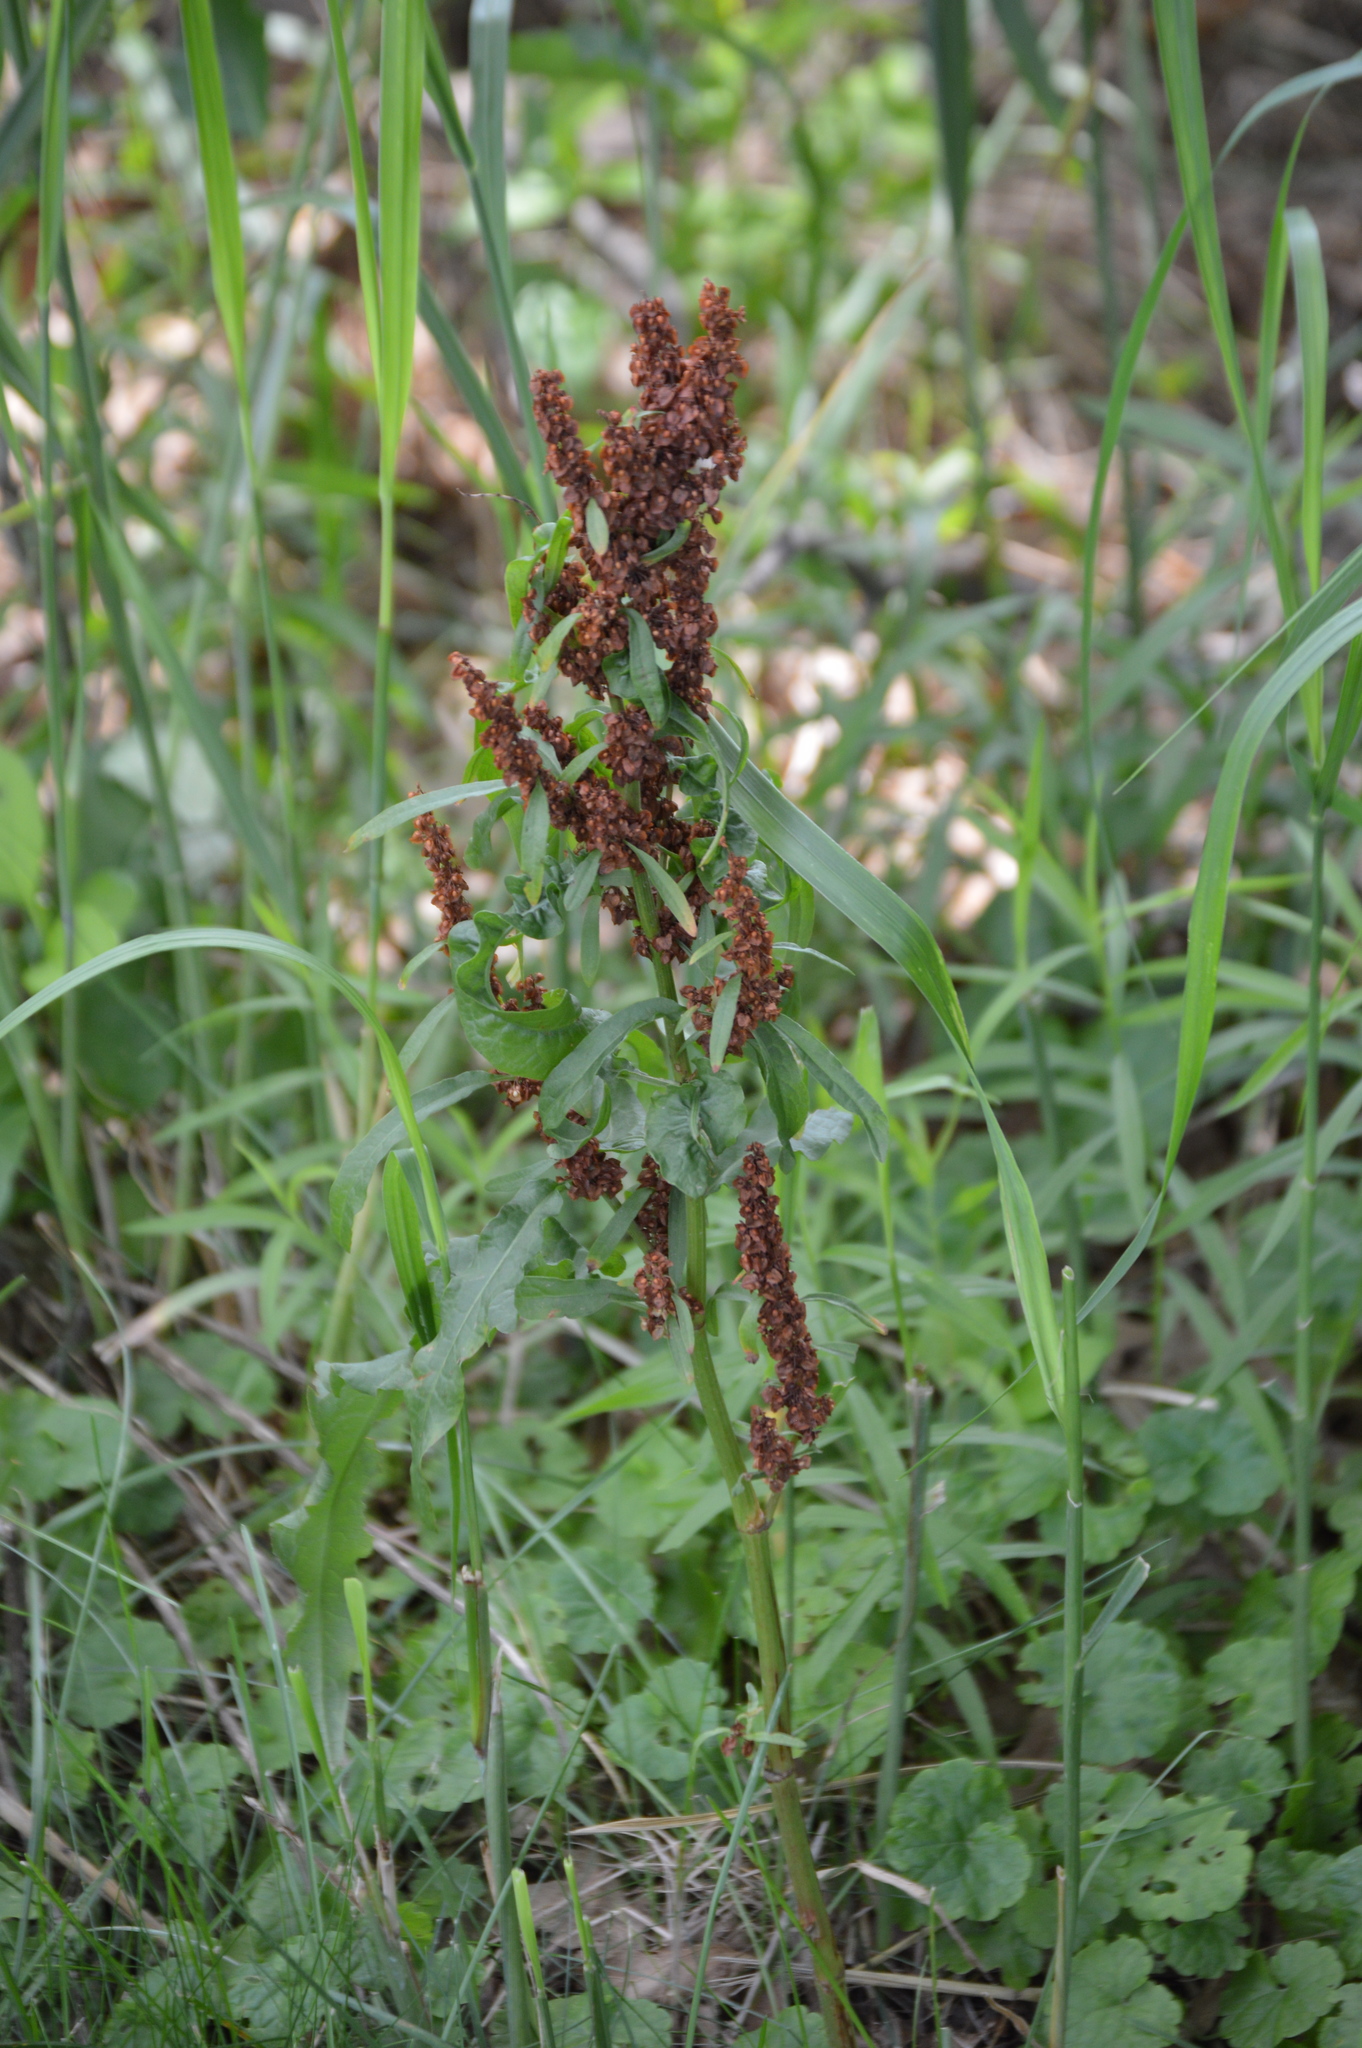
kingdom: Plantae
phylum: Tracheophyta
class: Magnoliopsida
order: Caryophyllales
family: Polygonaceae
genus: Rumex
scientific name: Rumex crispus
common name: Curled dock
